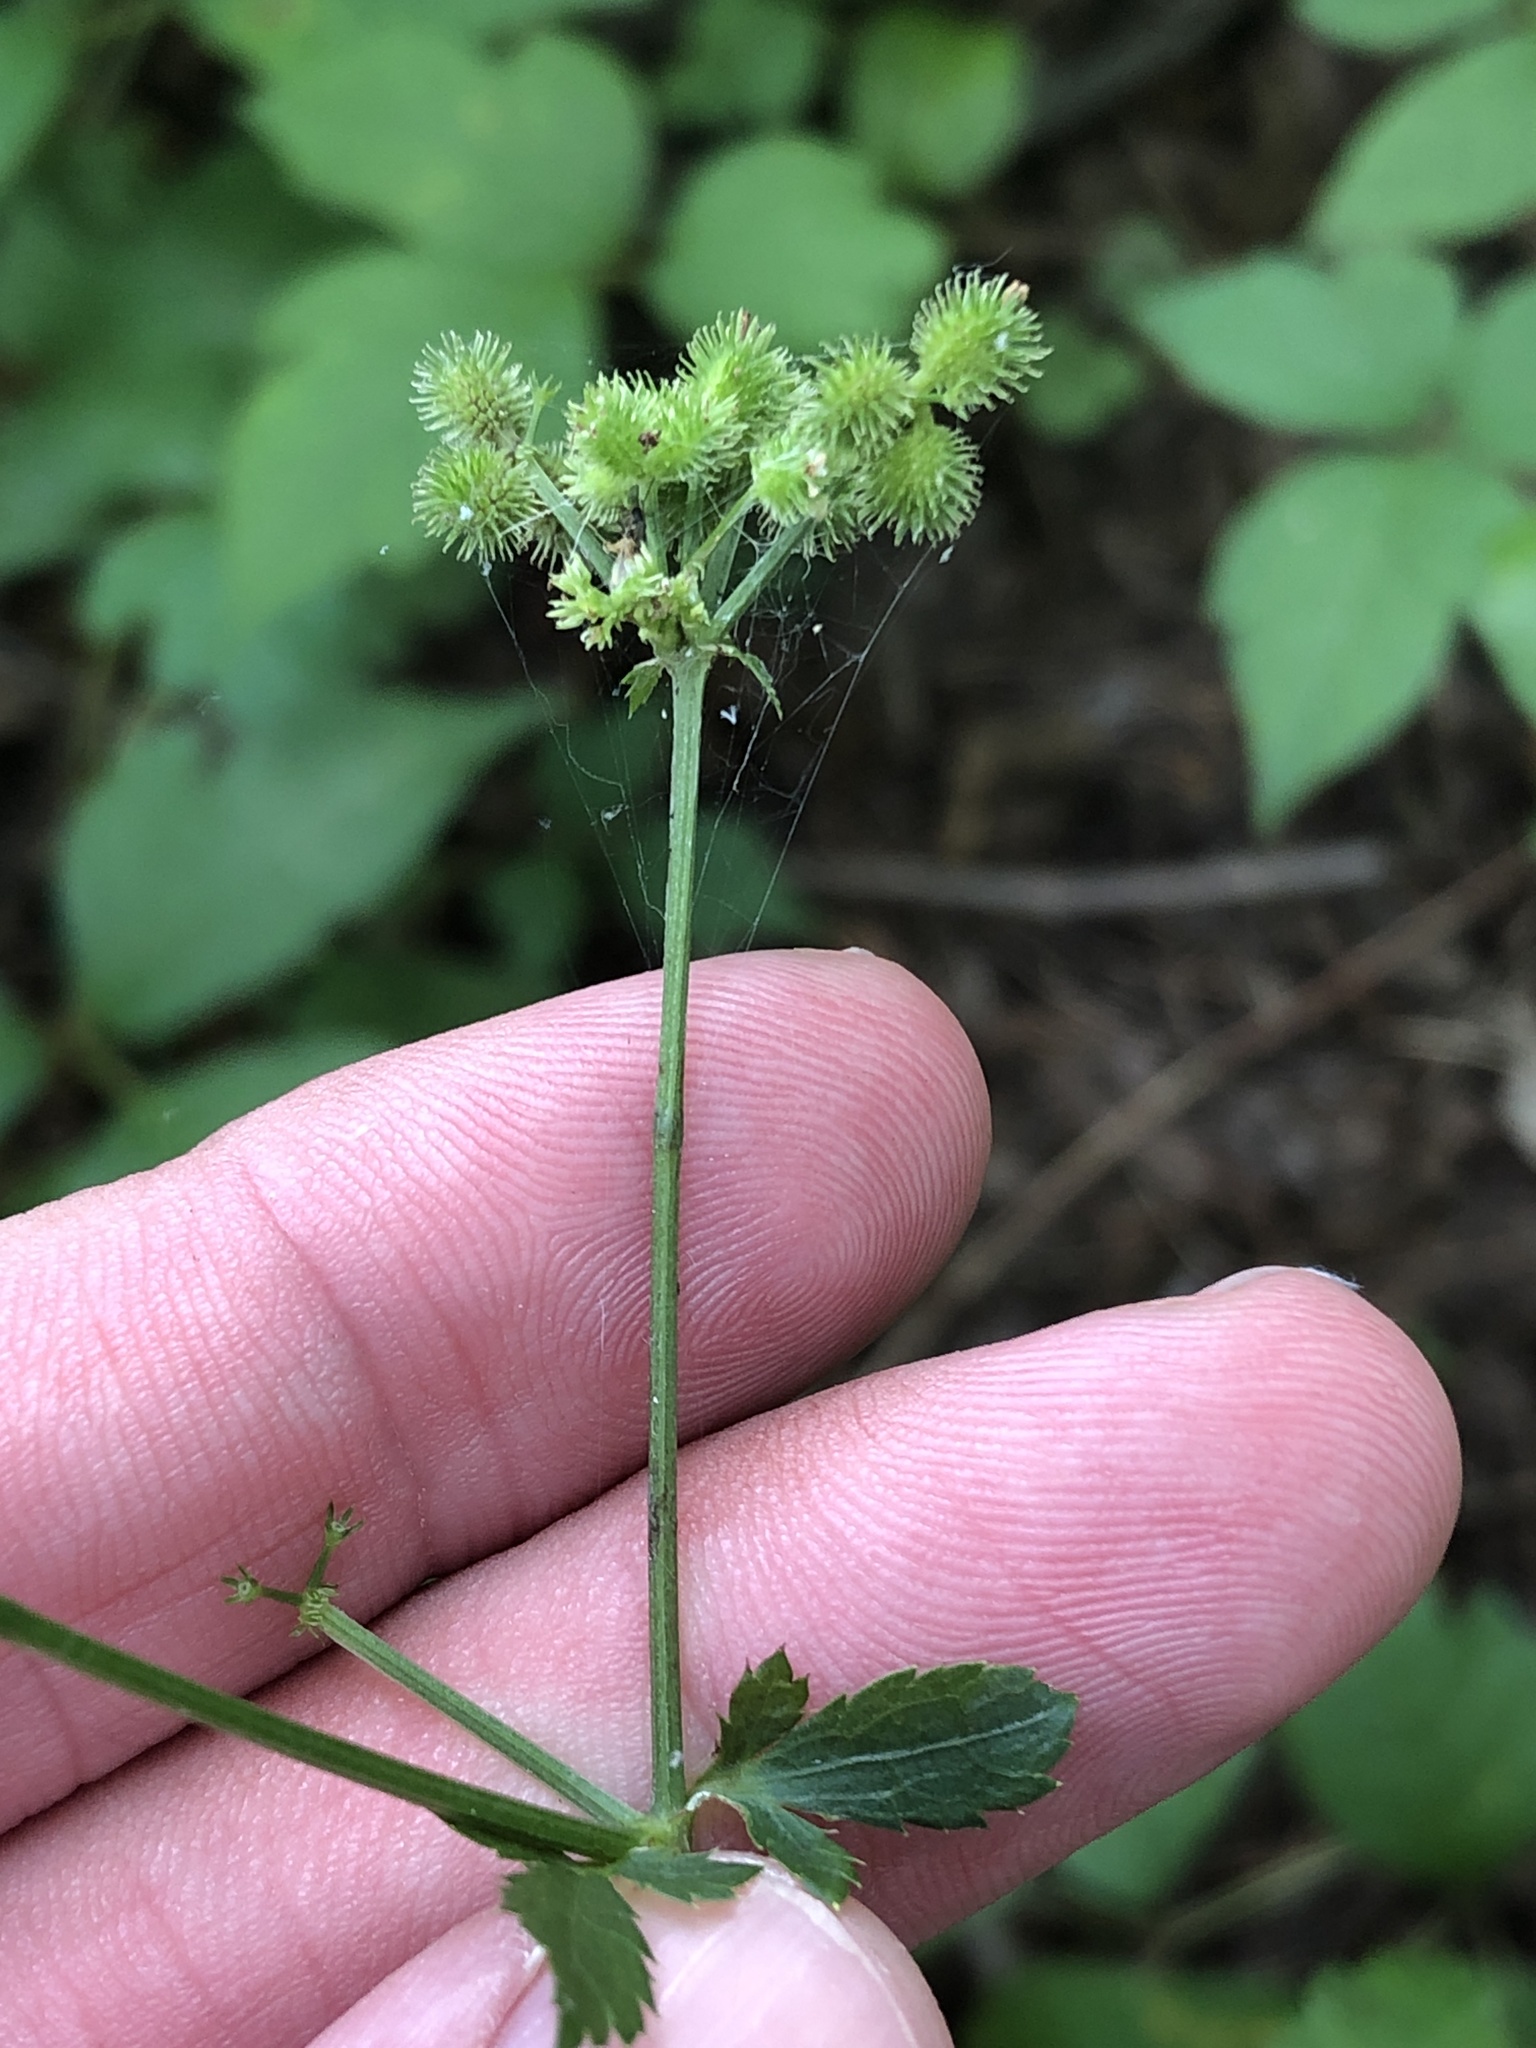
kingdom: Plantae
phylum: Tracheophyta
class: Magnoliopsida
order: Apiales
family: Apiaceae
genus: Sanicula
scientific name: Sanicula canadensis
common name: Canada sanicle
